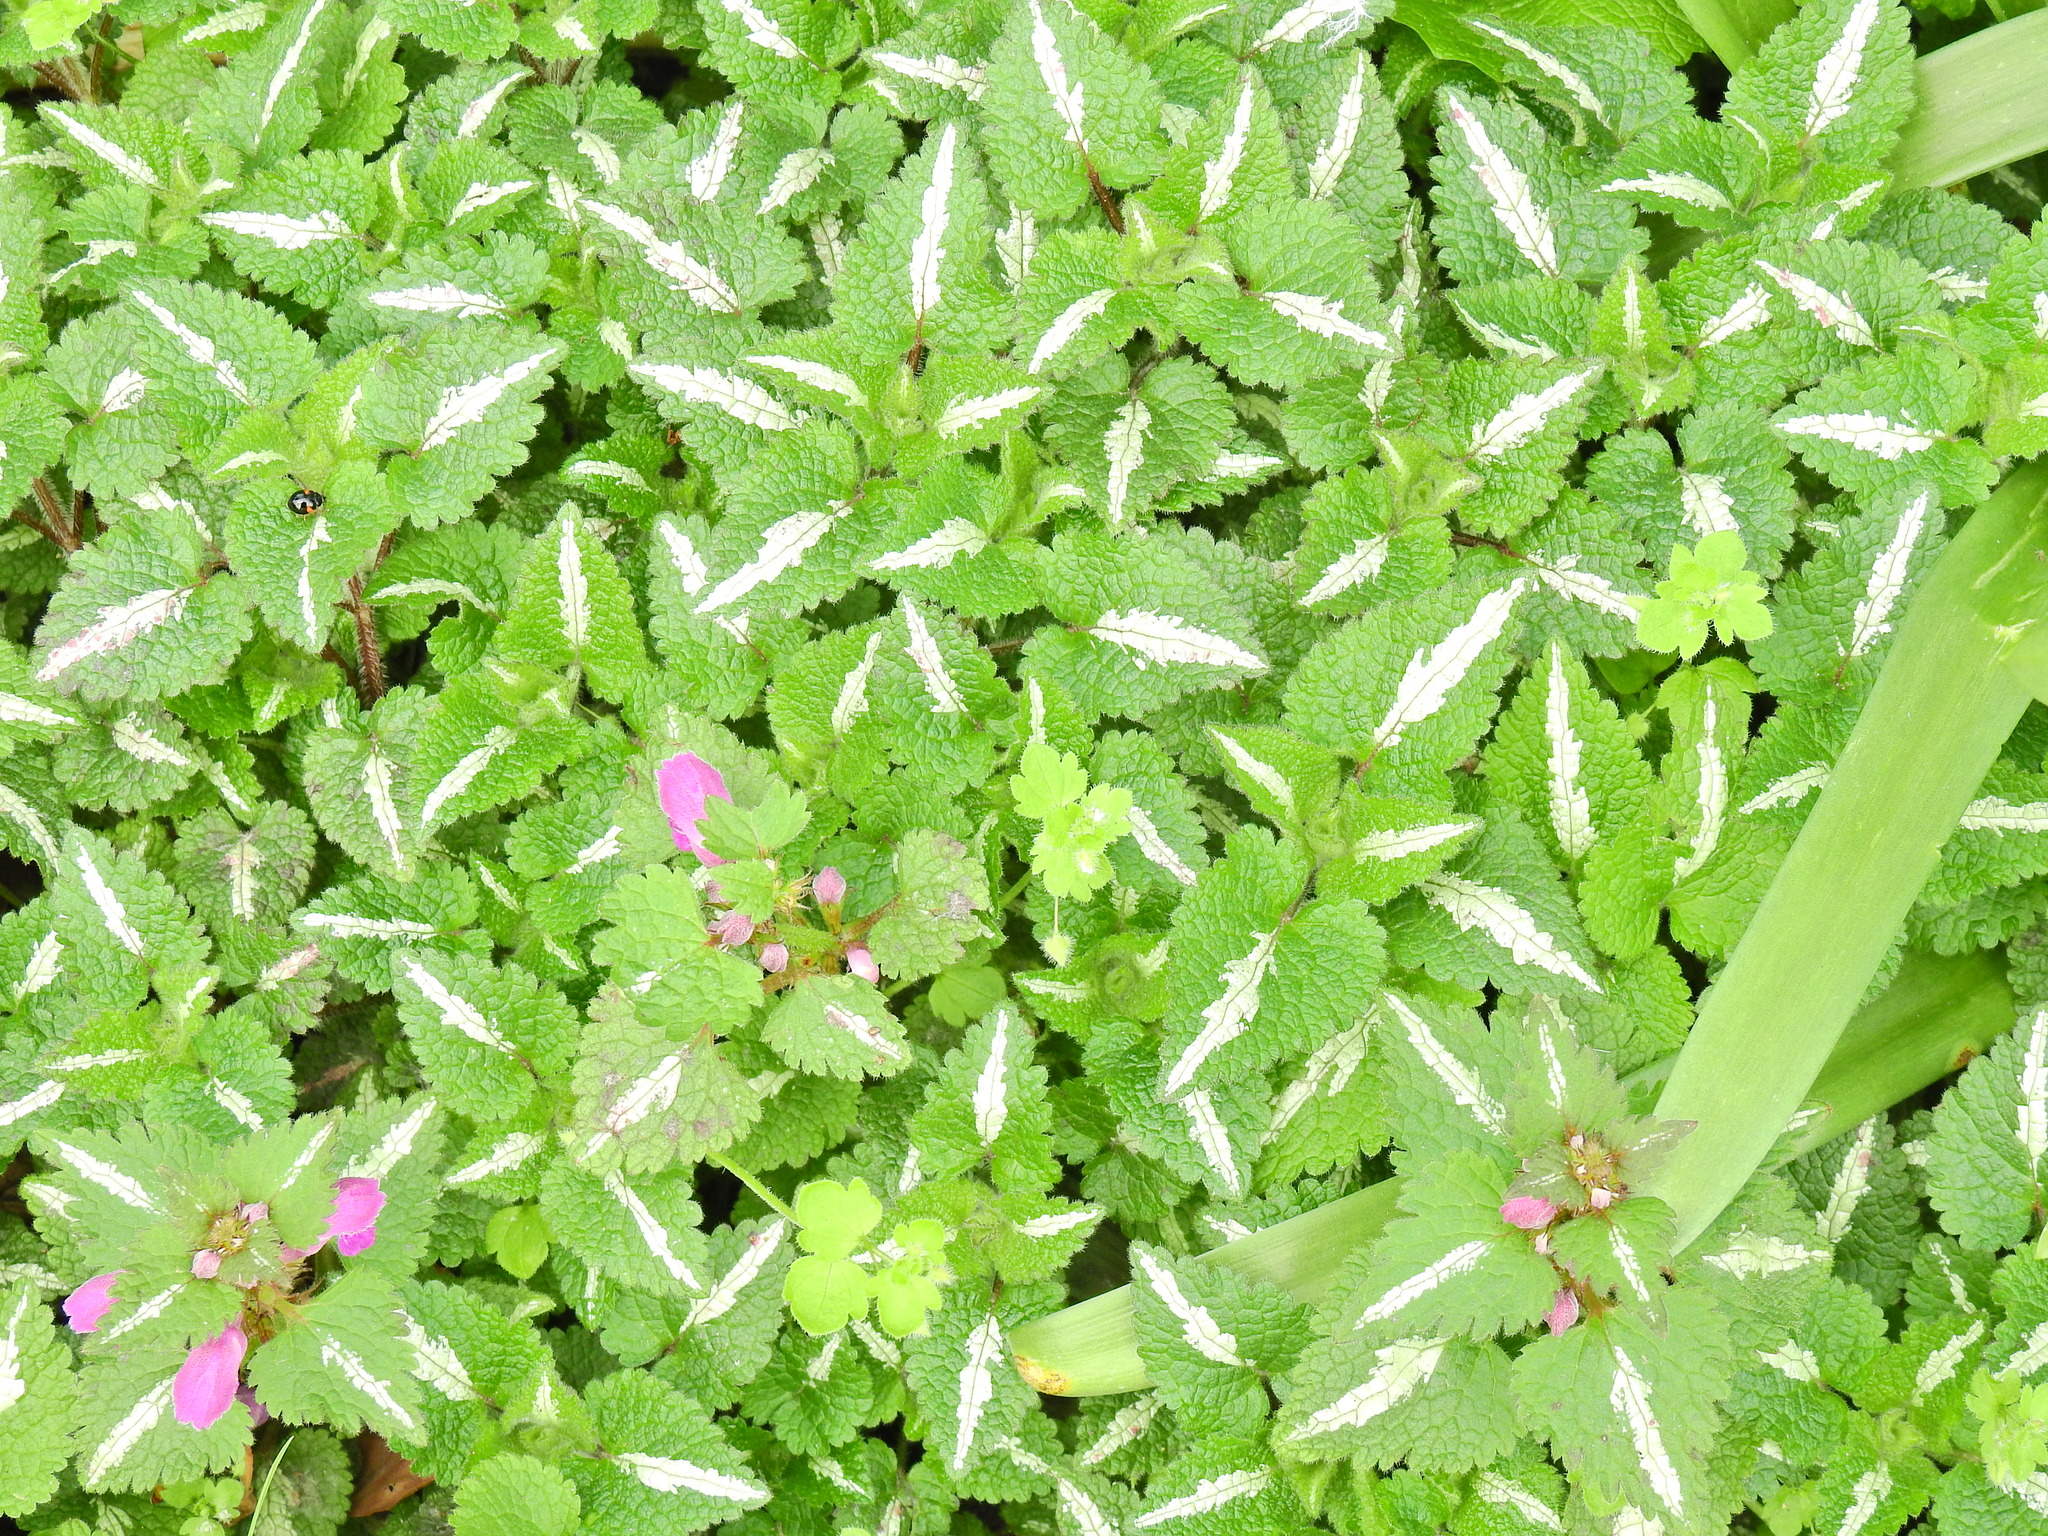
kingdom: Plantae
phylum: Tracheophyta
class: Magnoliopsida
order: Lamiales
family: Lamiaceae
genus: Lamium
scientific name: Lamium maculatum
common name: Spotted dead-nettle
